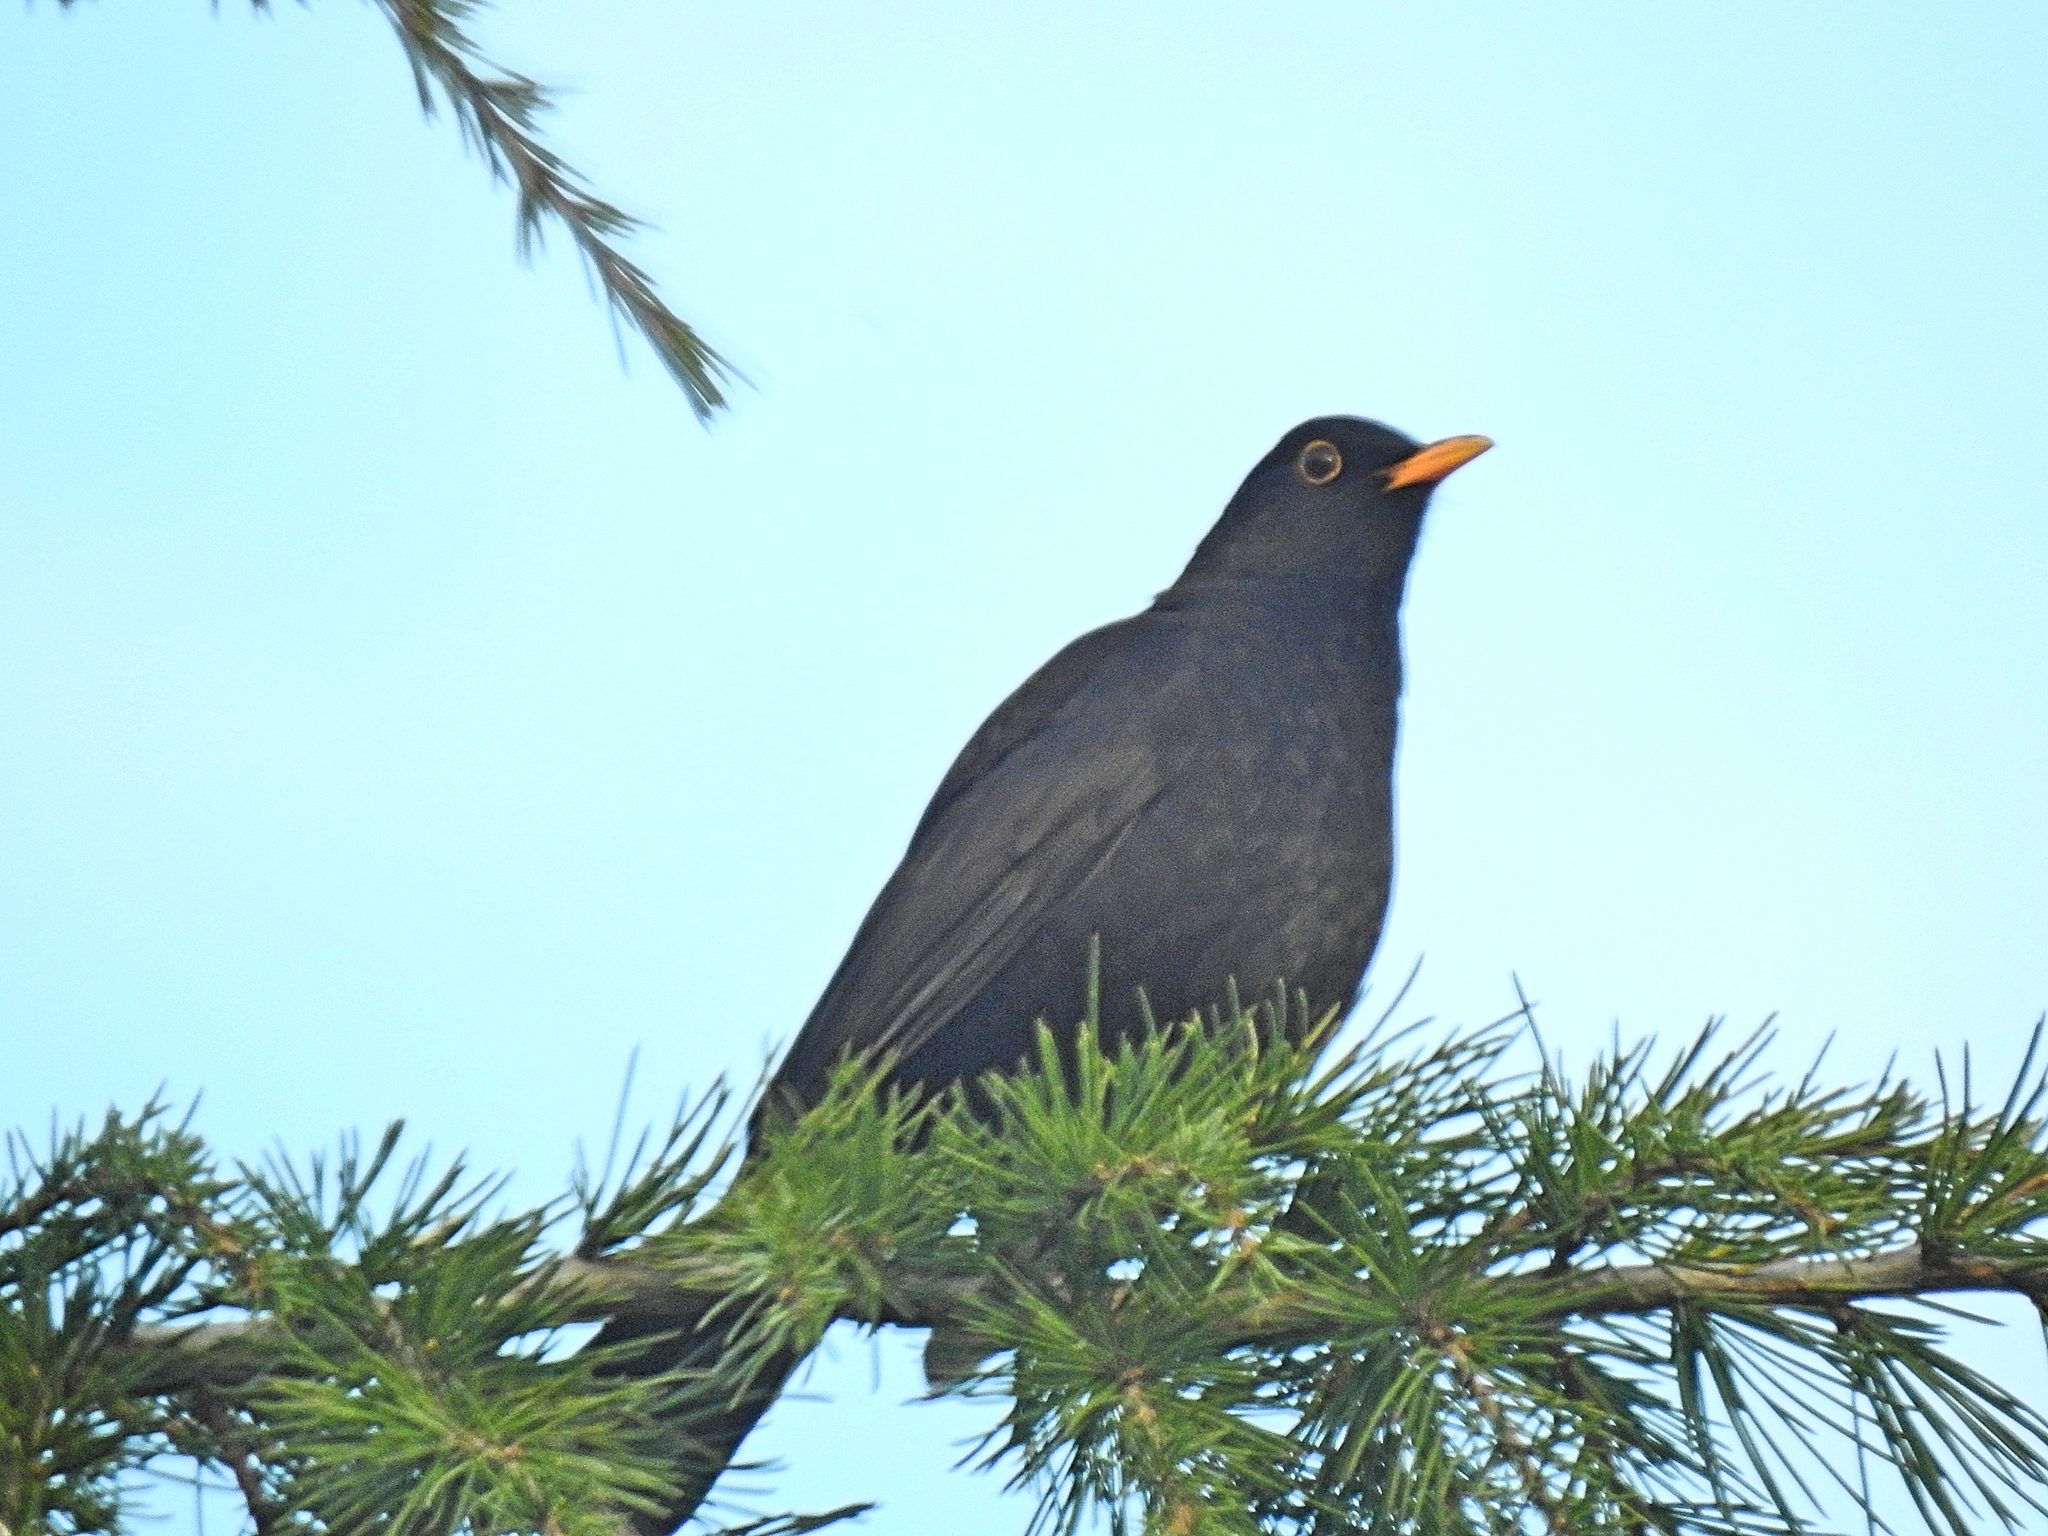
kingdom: Animalia
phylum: Chordata
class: Aves
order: Passeriformes
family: Turdidae
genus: Turdus
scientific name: Turdus merula
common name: Common blackbird
